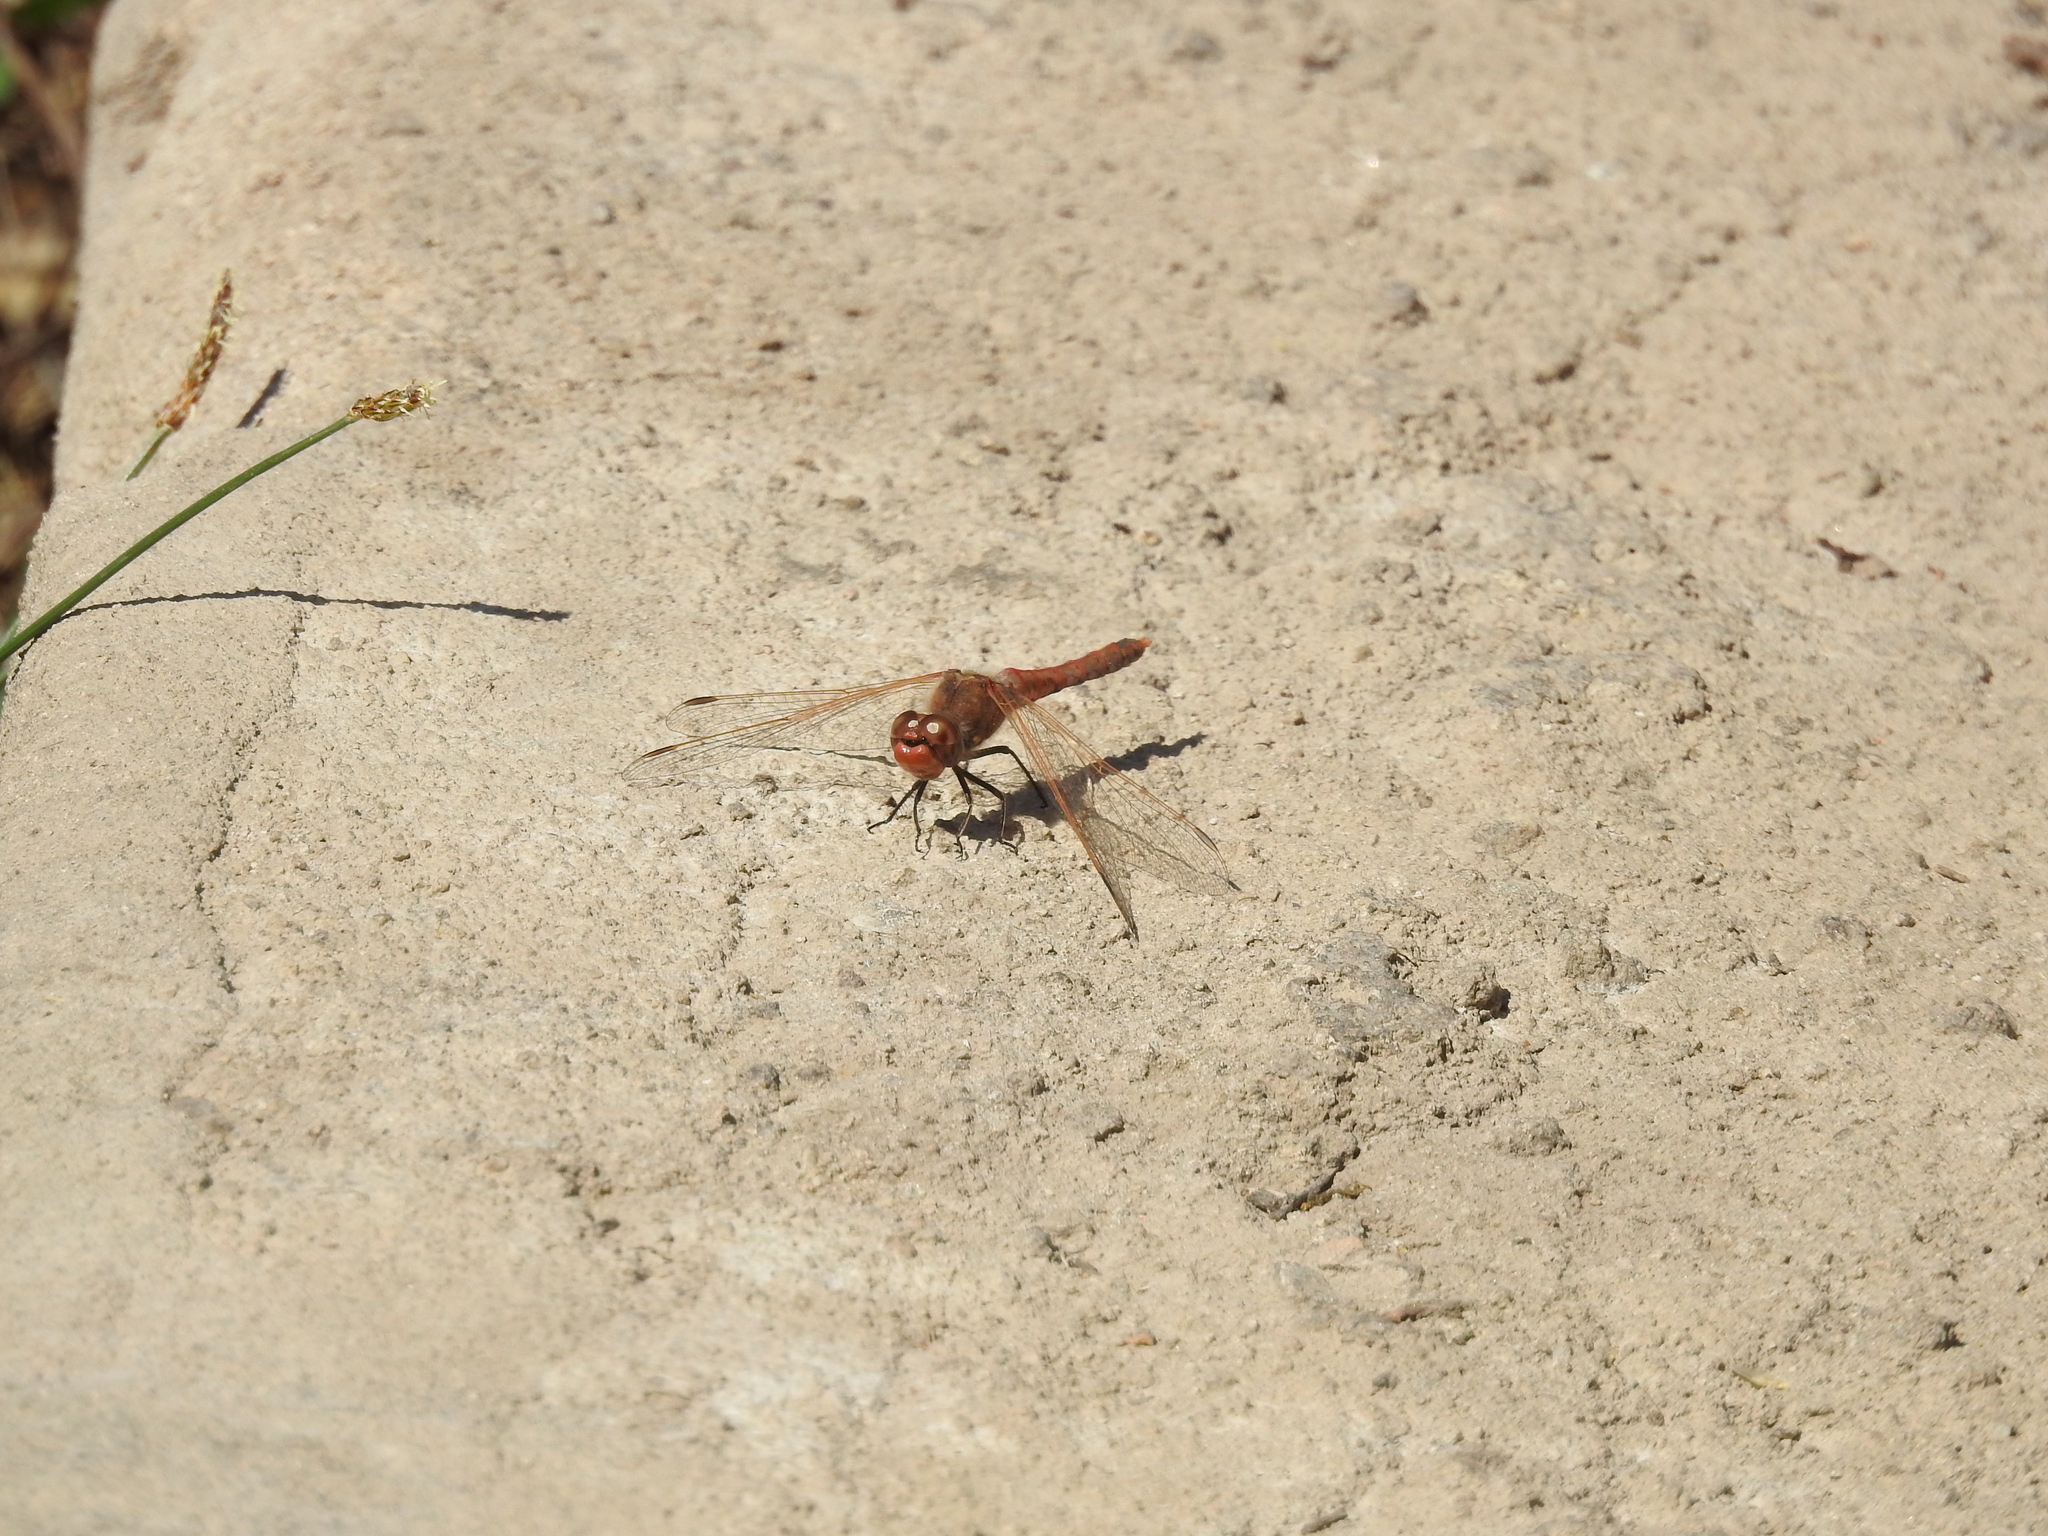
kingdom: Animalia
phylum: Arthropoda
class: Insecta
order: Odonata
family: Libellulidae
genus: Sympetrum
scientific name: Sympetrum corruptum
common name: Variegated meadowhawk
